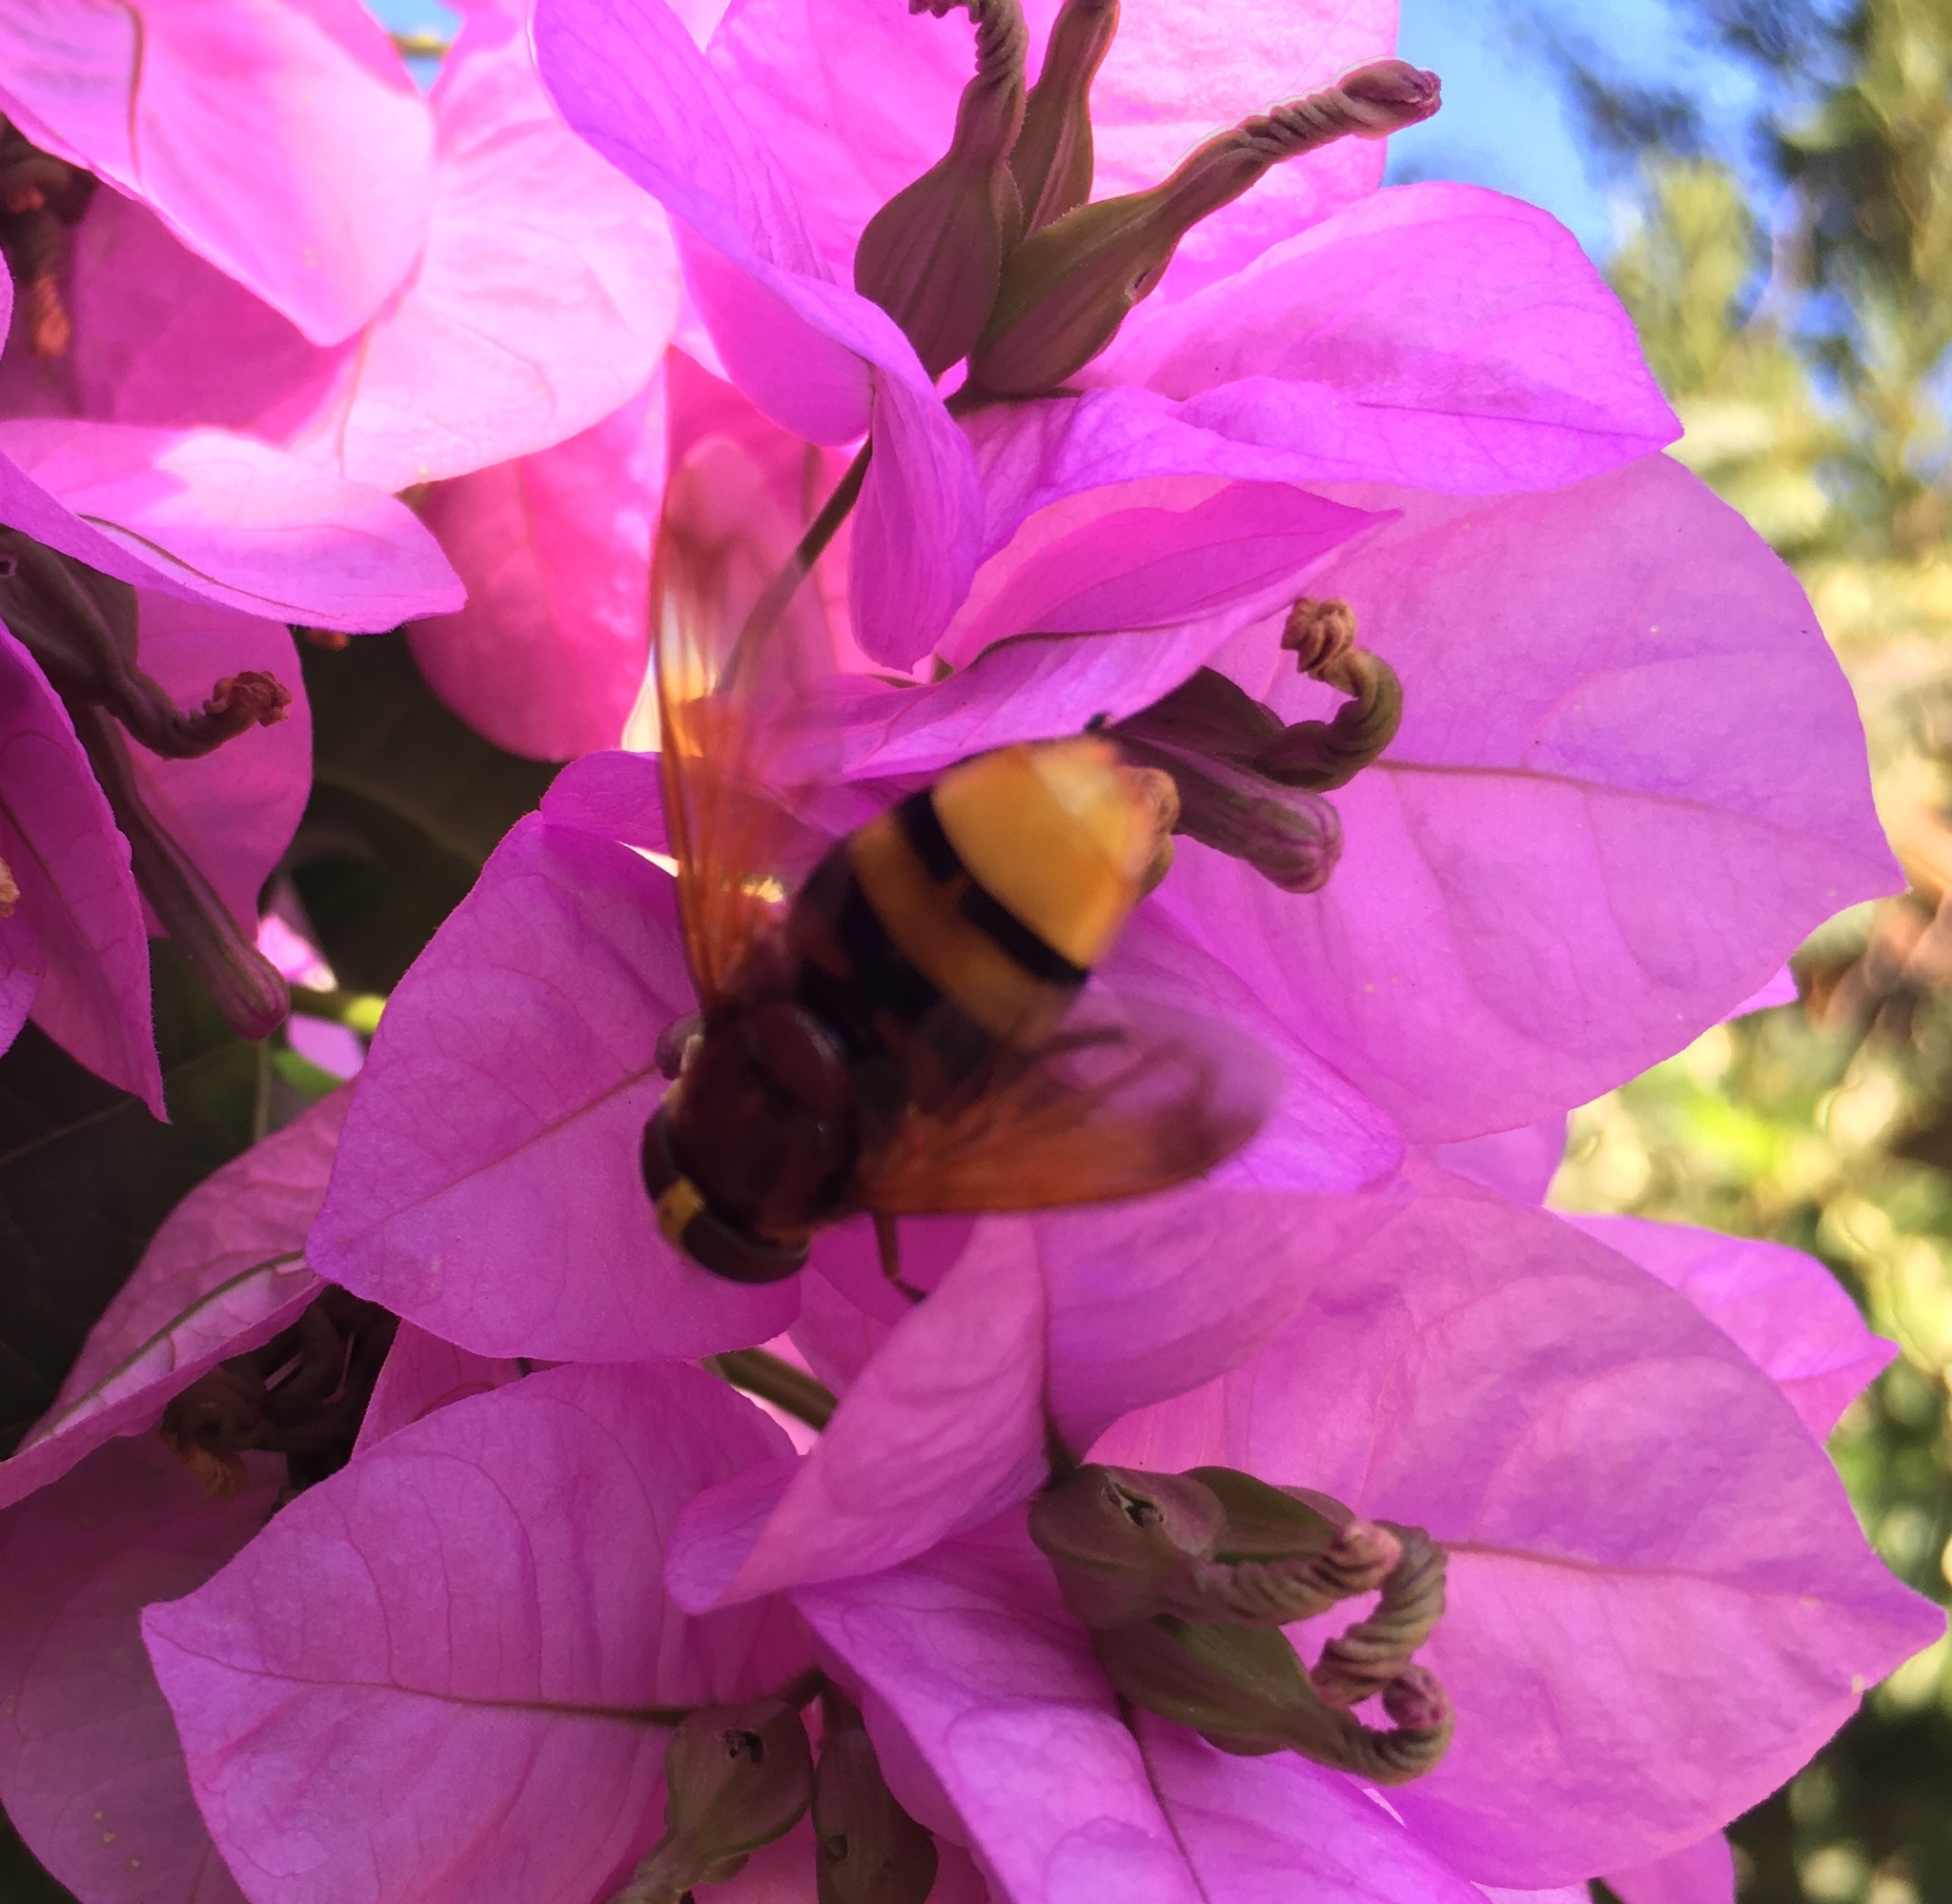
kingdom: Animalia
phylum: Arthropoda
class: Insecta
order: Diptera
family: Syrphidae
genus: Volucella
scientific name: Volucella zonaria
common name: Hornet hoverfly
